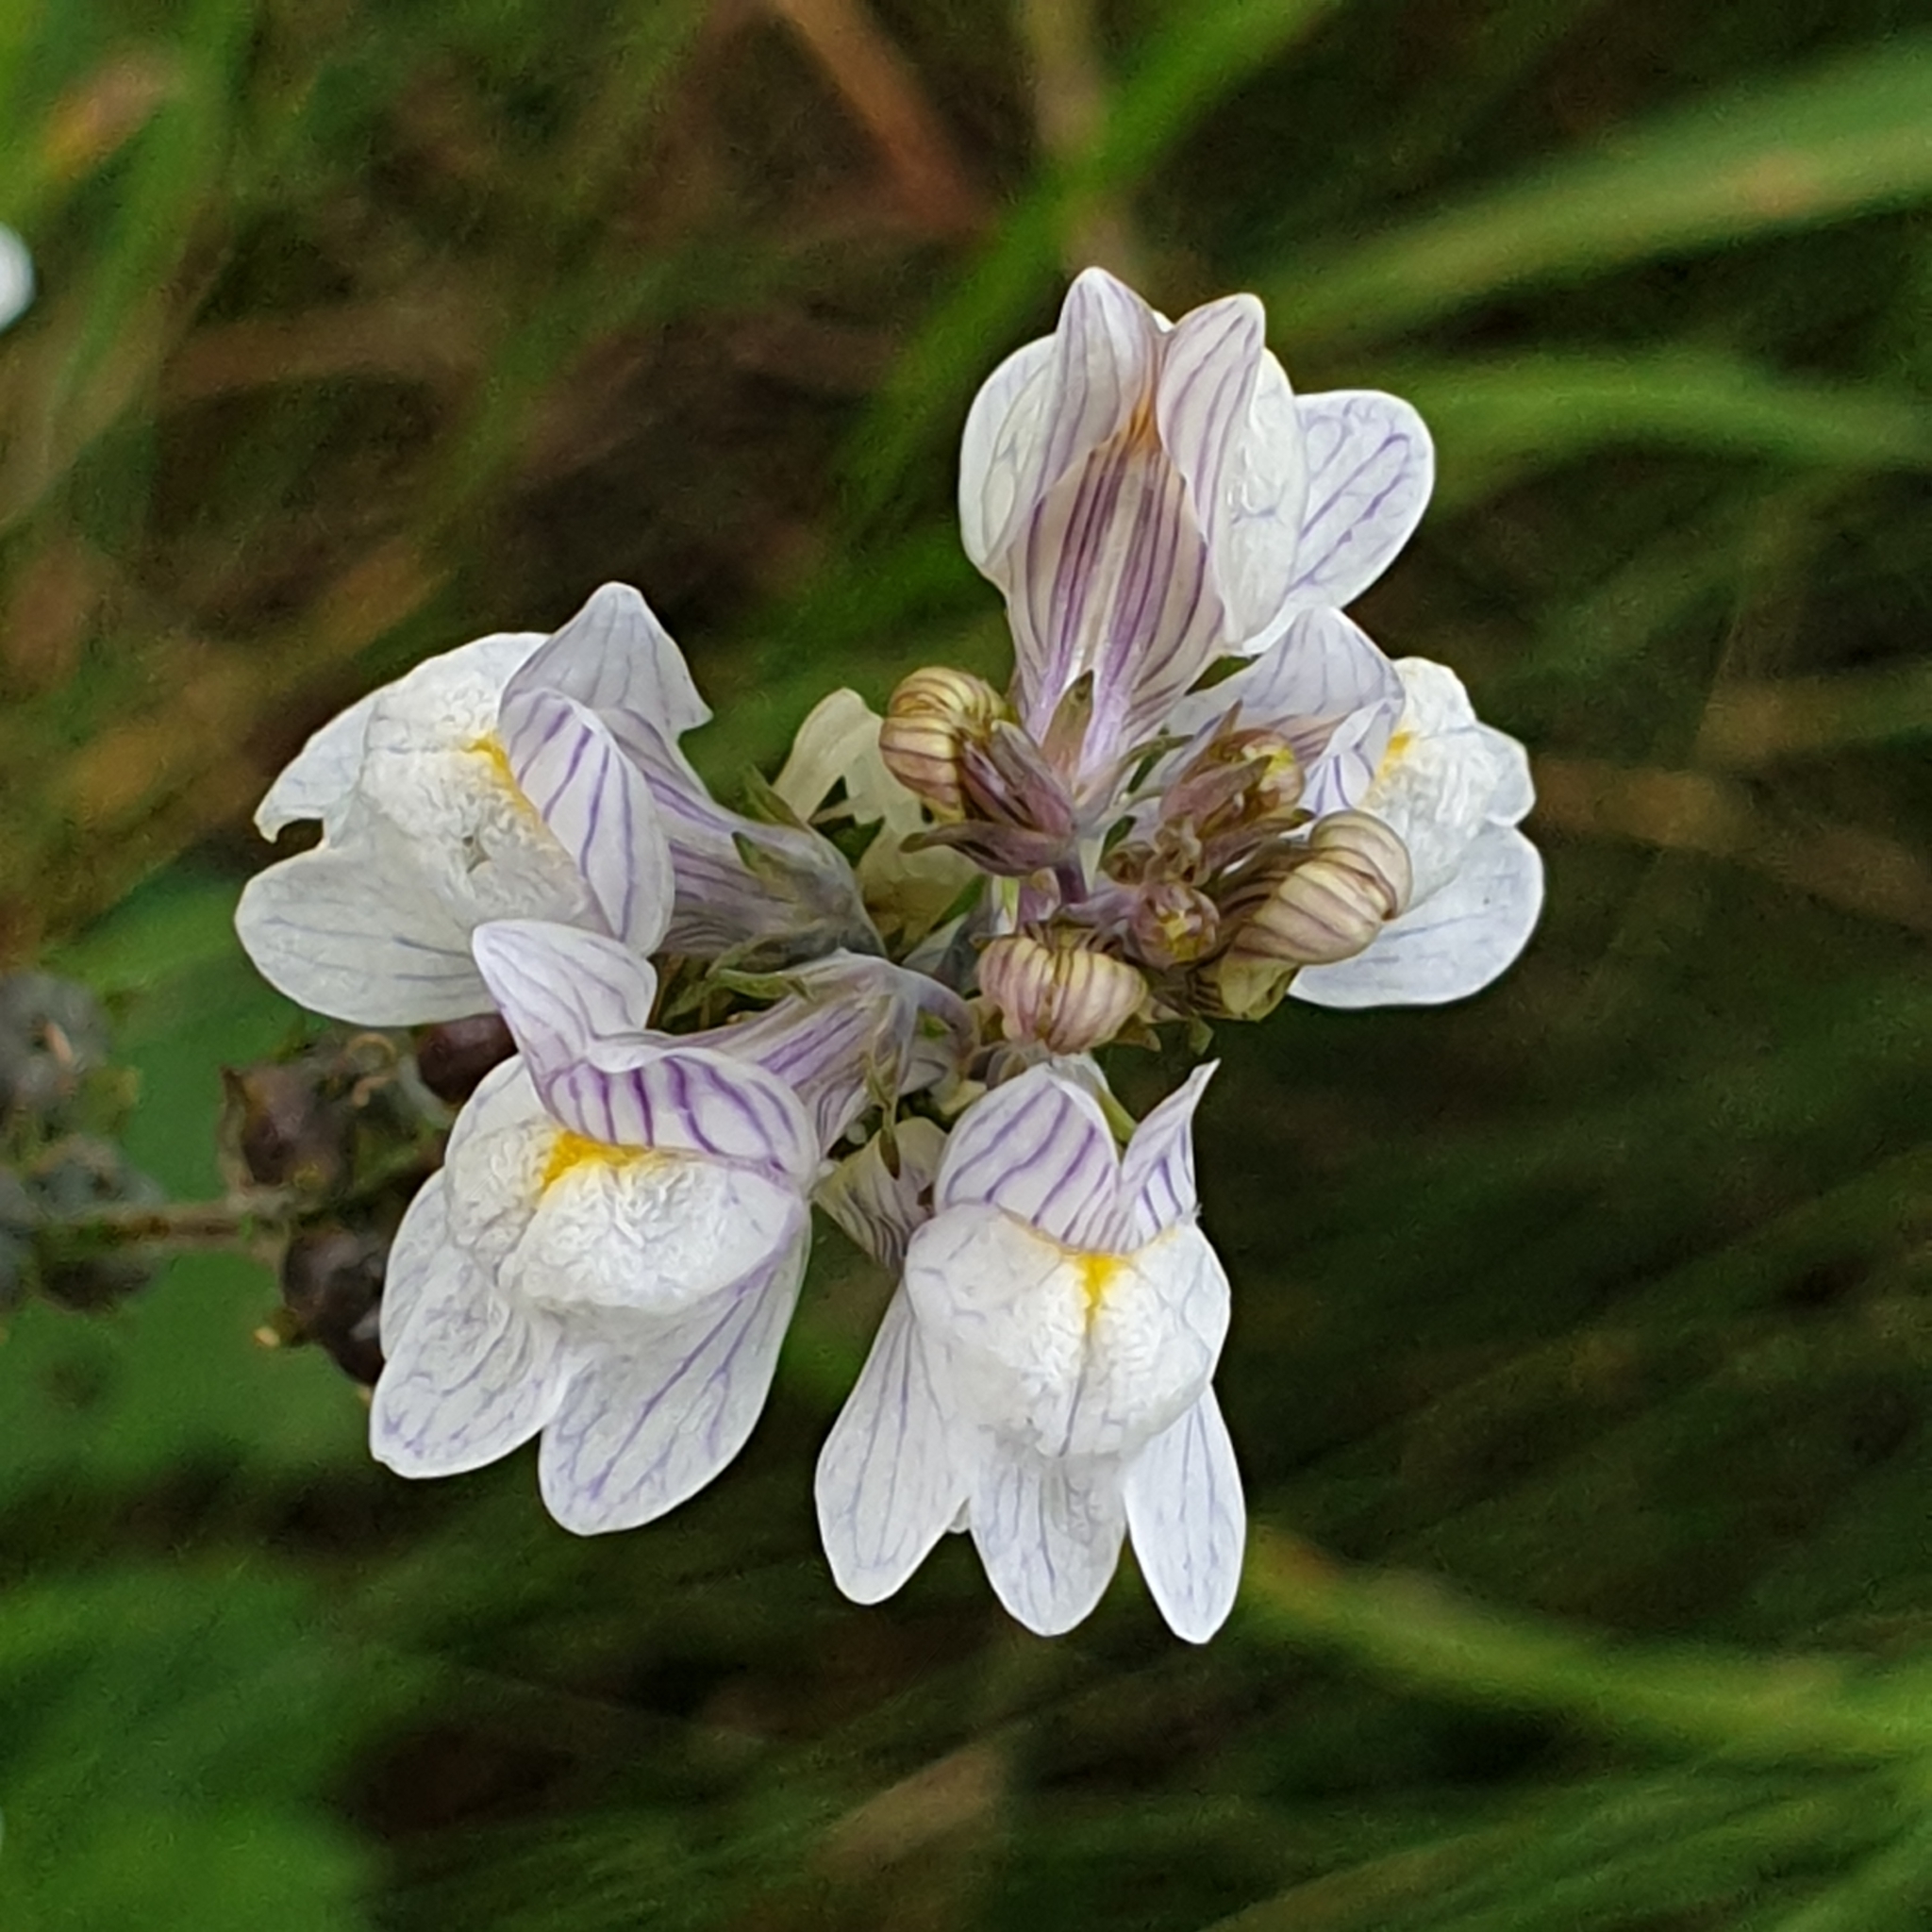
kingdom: Plantae
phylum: Tracheophyta
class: Magnoliopsida
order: Lamiales
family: Plantaginaceae
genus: Linaria
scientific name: Linaria repens
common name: Pale toadflax
